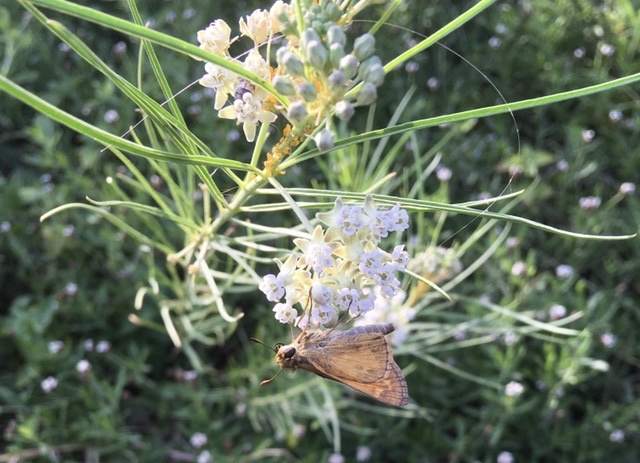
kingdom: Animalia
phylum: Arthropoda
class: Insecta
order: Lepidoptera
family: Hesperiidae
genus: Atalopedes
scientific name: Atalopedes
